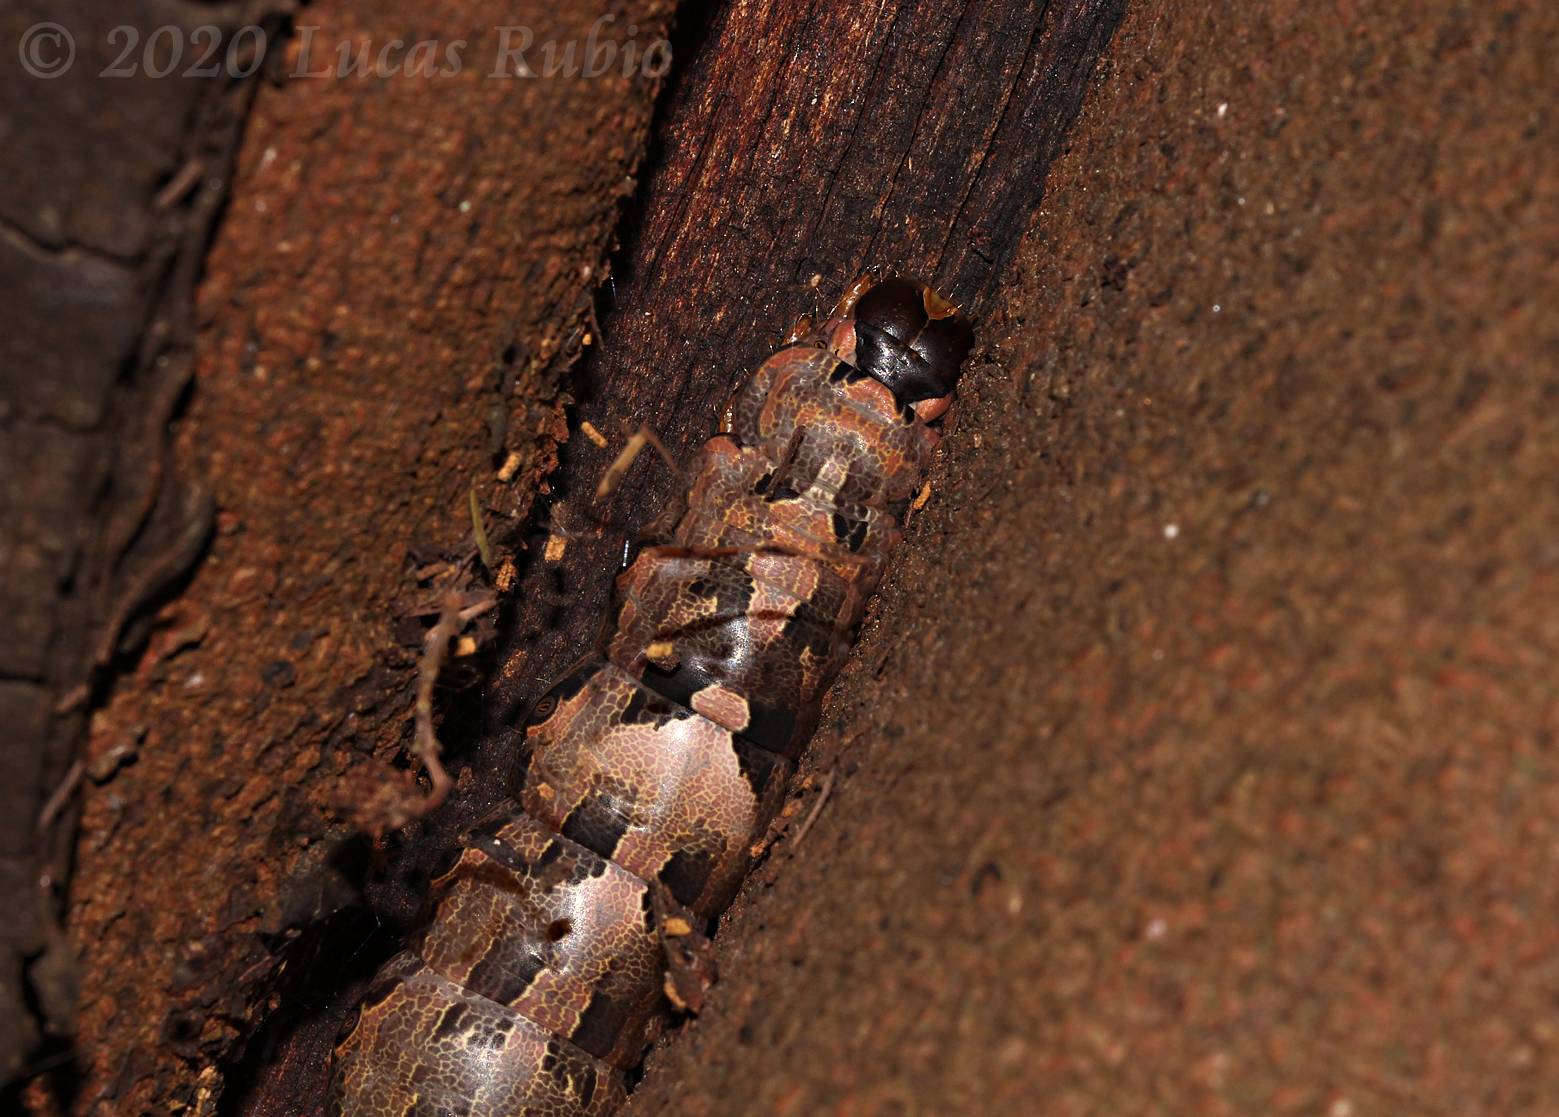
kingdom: Animalia
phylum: Arthropoda
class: Insecta
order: Lepidoptera
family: Erebidae
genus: Ascalapha
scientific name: Ascalapha odorata
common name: Black witch
